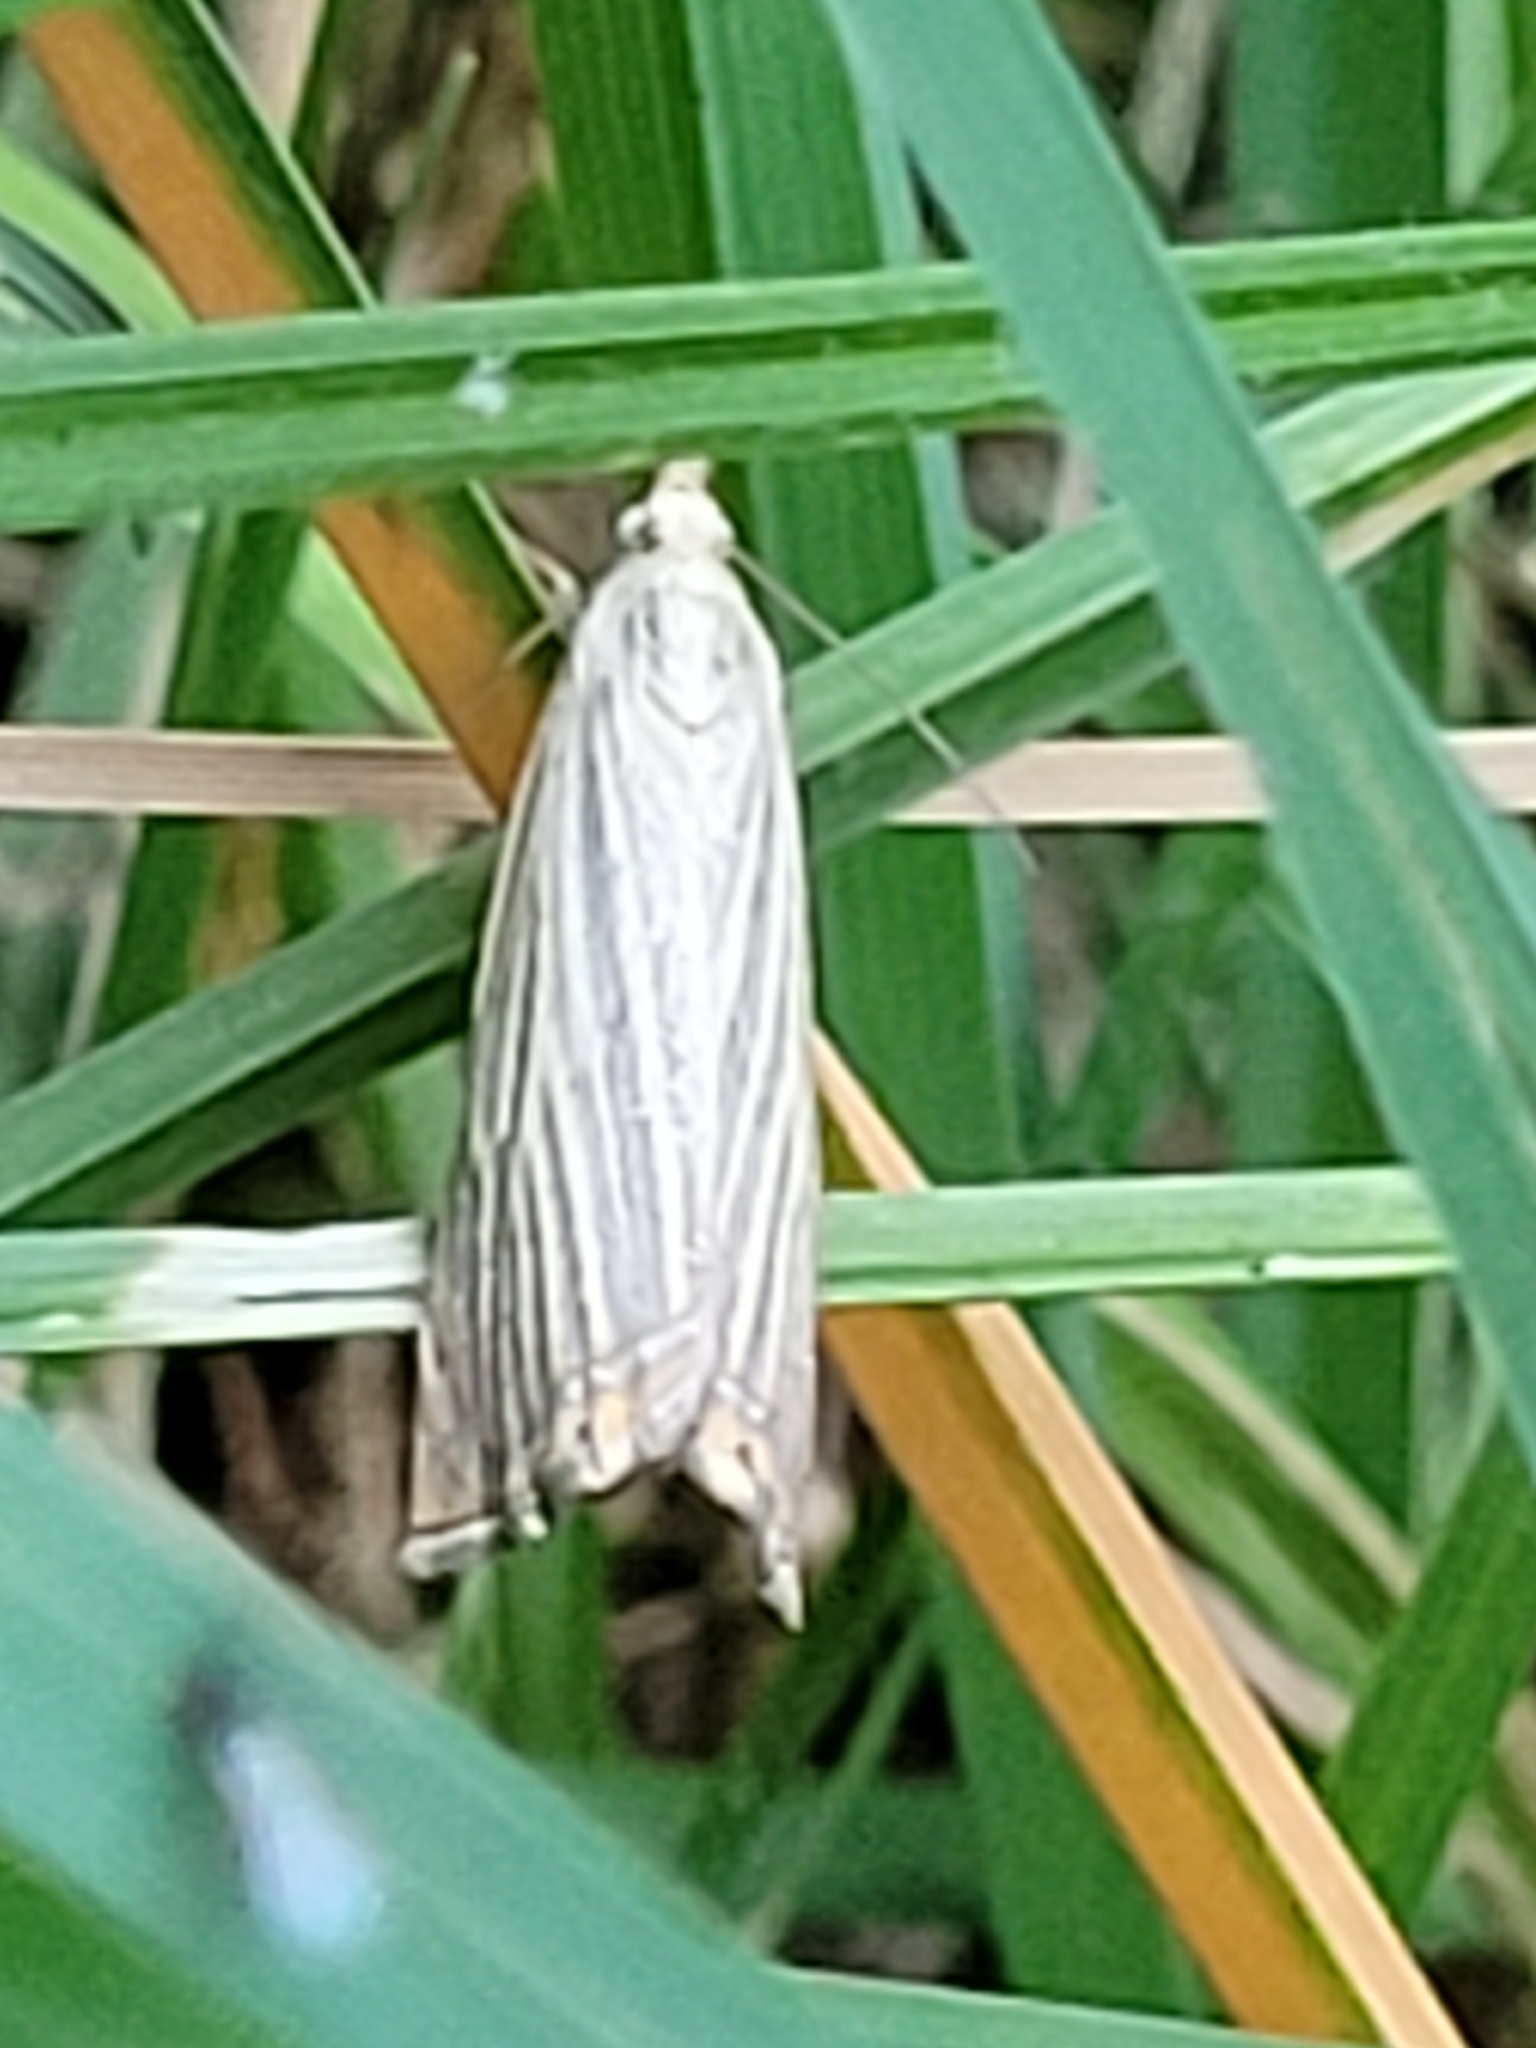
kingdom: Animalia
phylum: Arthropoda
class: Insecta
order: Lepidoptera
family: Crambidae
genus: Chrysoteuchia
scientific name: Chrysoteuchia culmella
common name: Garden grass-veneer
